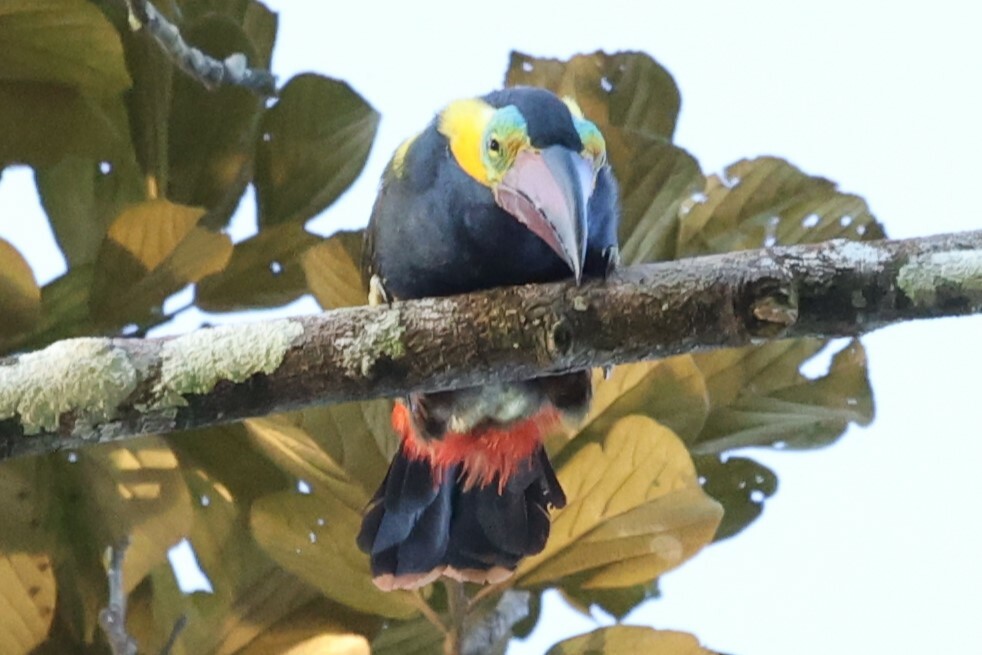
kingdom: Animalia
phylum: Chordata
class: Aves
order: Piciformes
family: Ramphastidae
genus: Selenidera
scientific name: Selenidera reinwardtii
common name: Golden-collared toucanet
